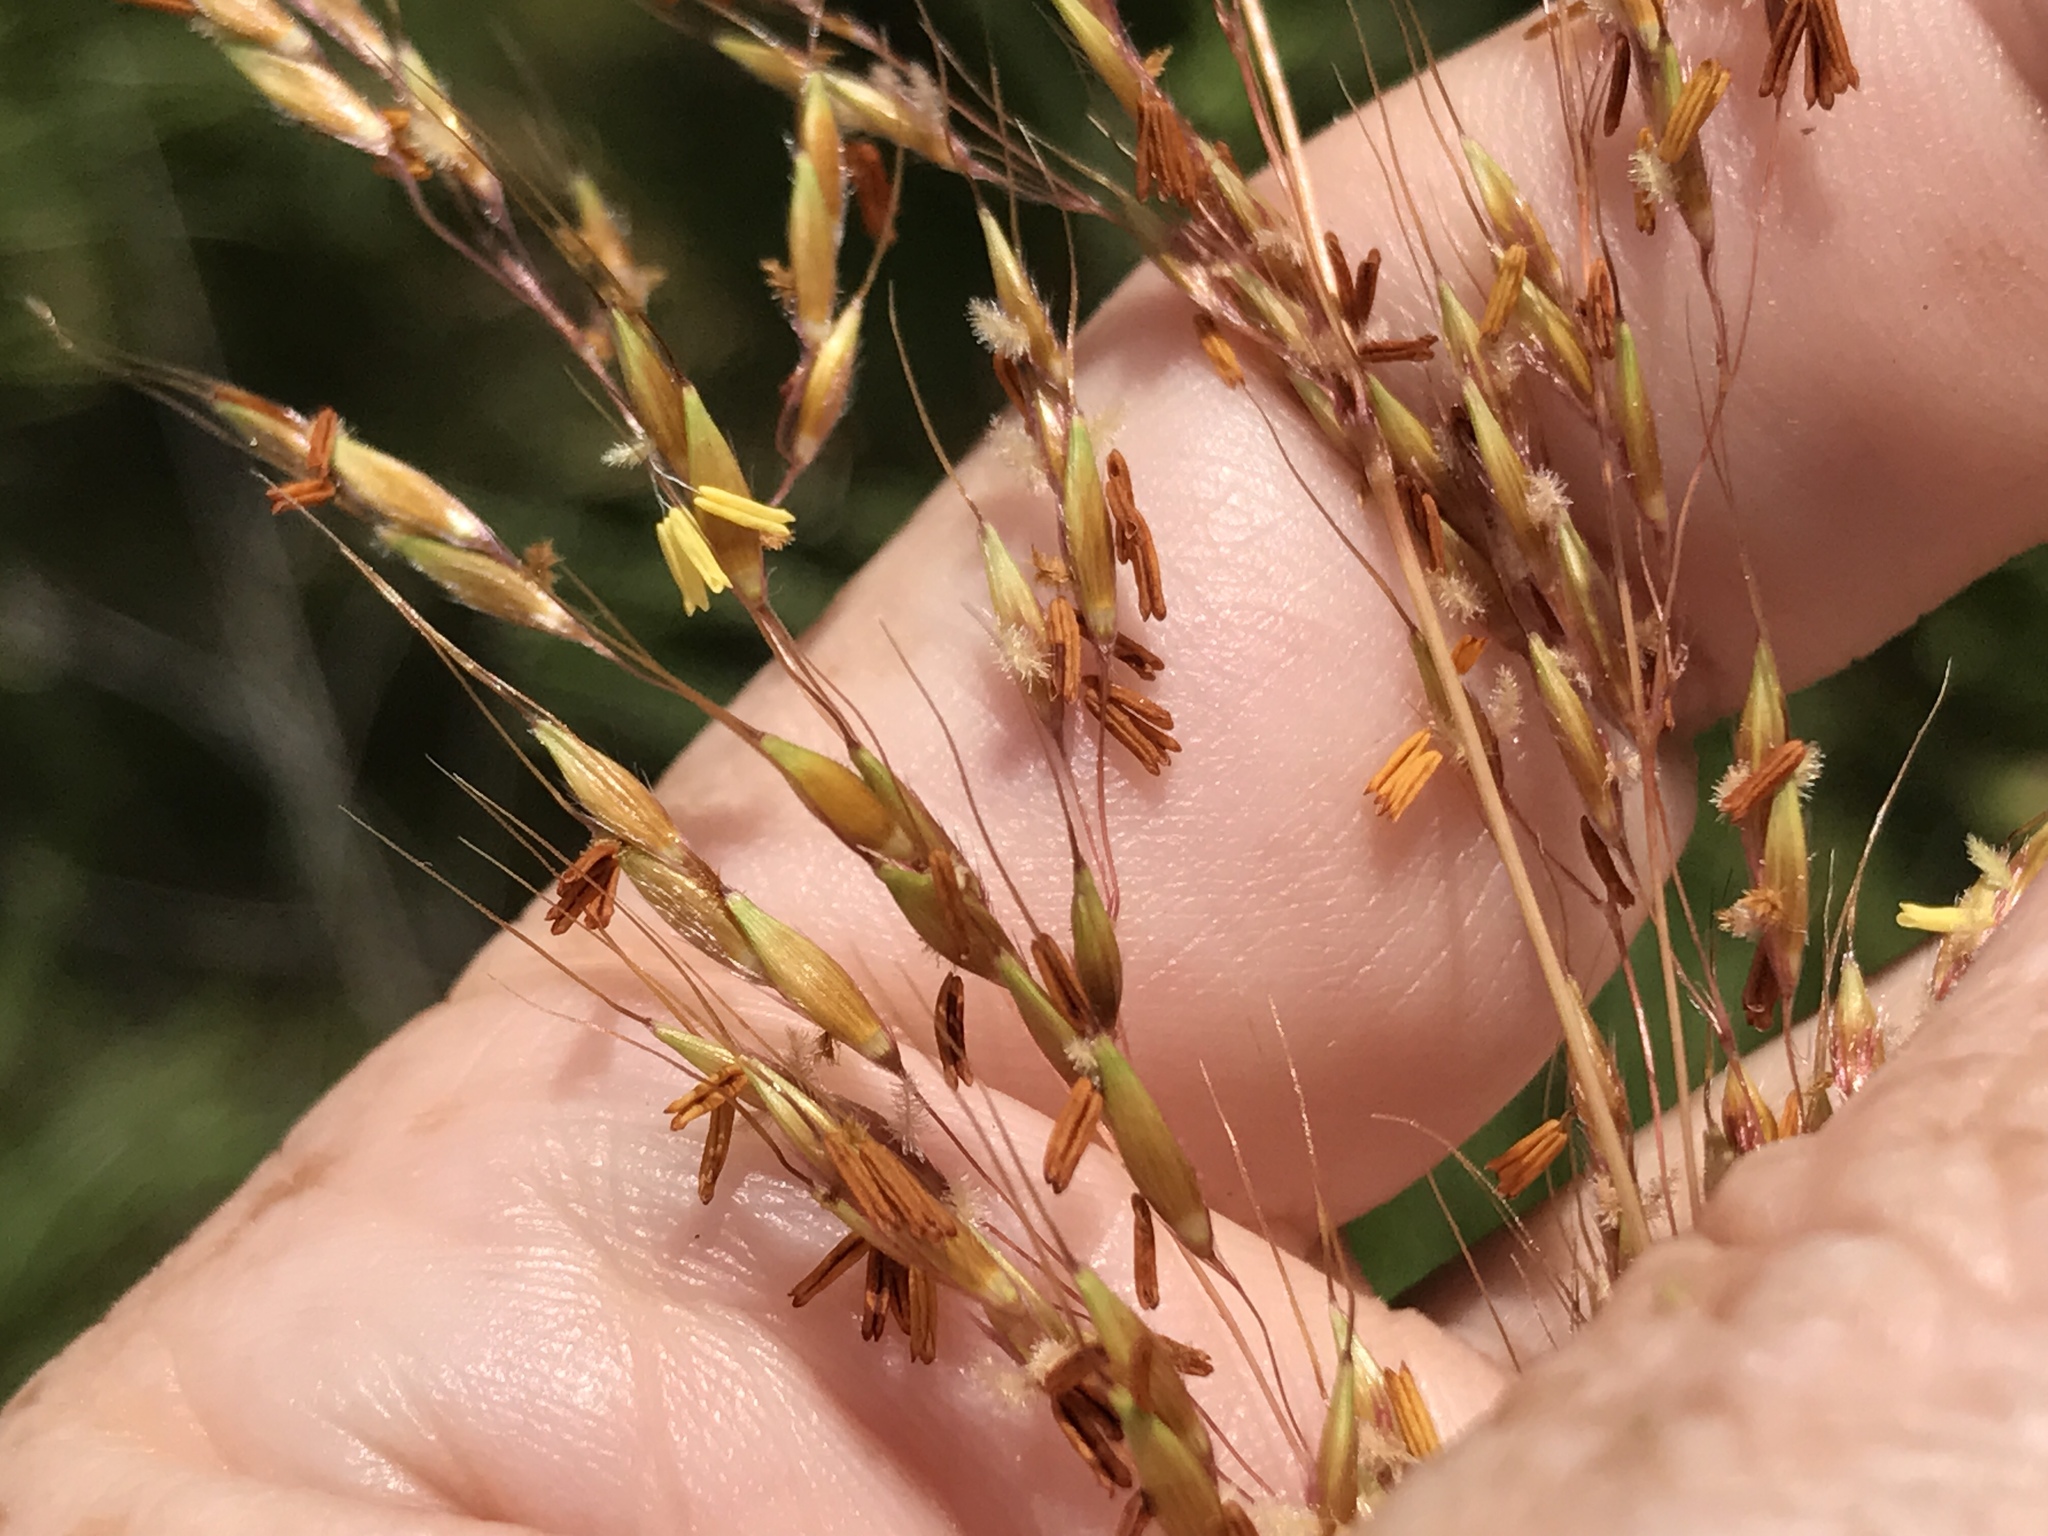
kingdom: Plantae
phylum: Tracheophyta
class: Liliopsida
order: Poales
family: Poaceae
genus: Sorghastrum
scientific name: Sorghastrum nutans
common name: Indian grass
